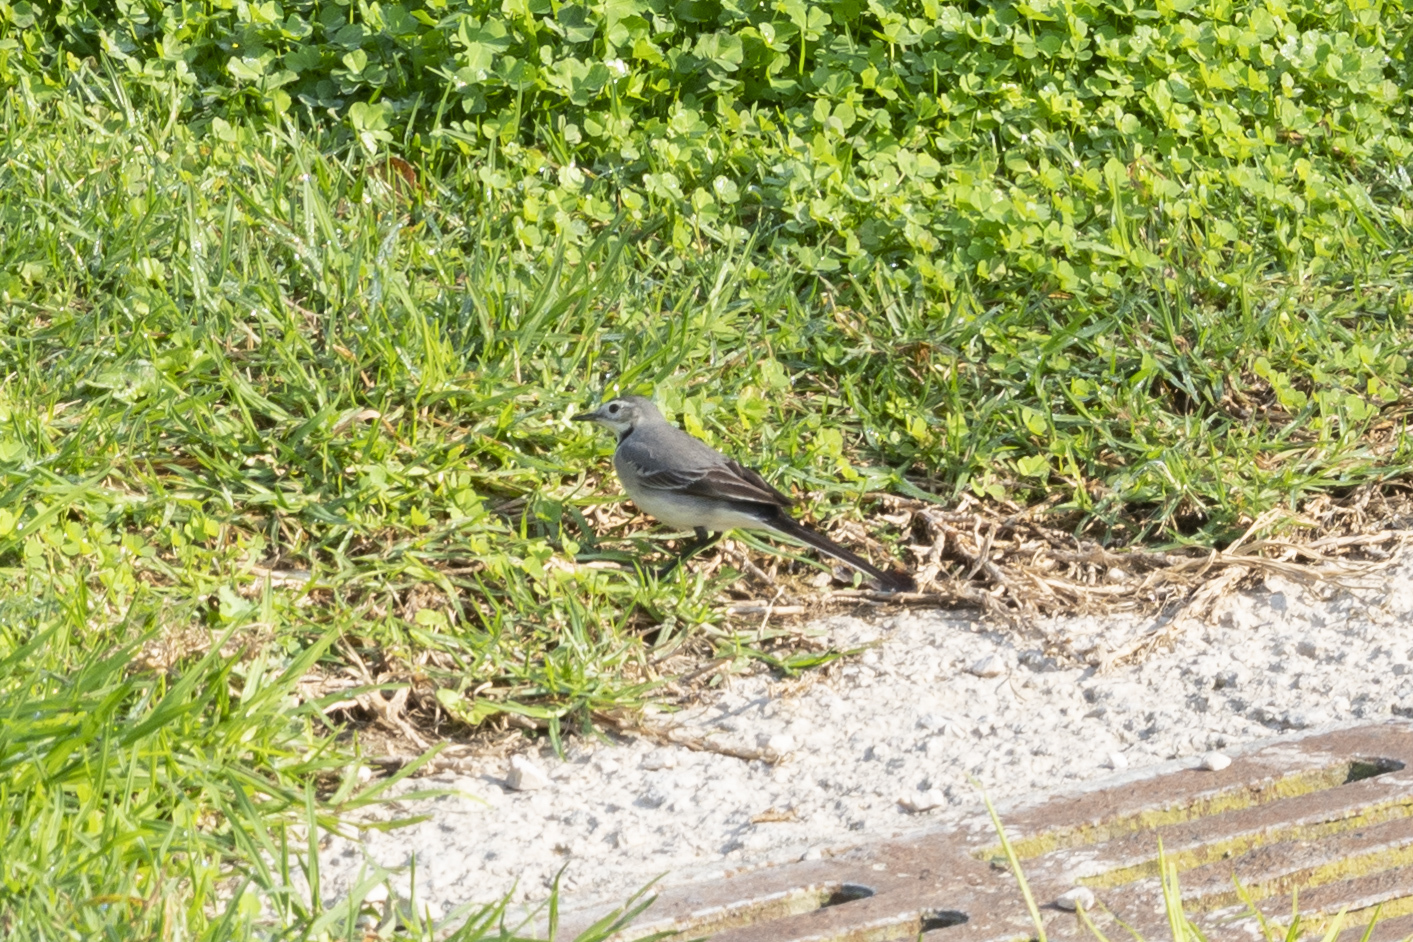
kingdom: Animalia
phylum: Chordata
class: Aves
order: Passeriformes
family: Motacillidae
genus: Motacilla
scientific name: Motacilla alba
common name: White wagtail
